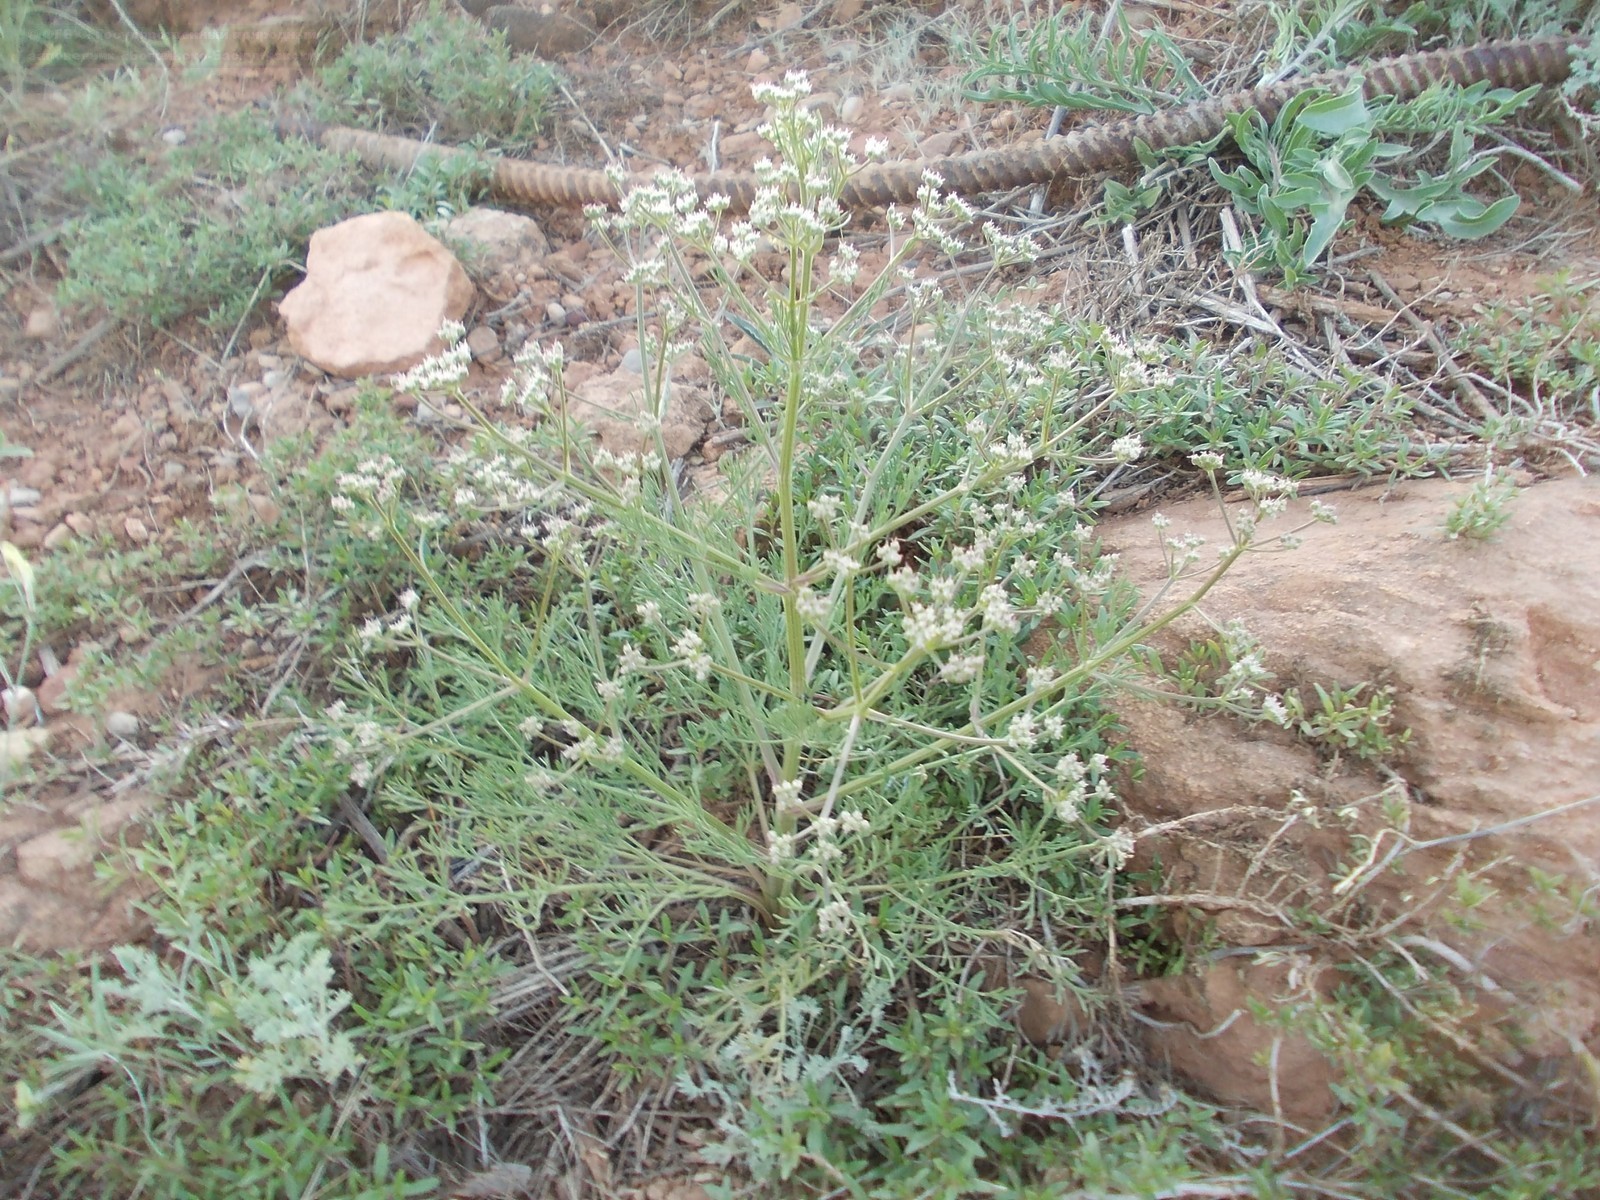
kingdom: Plantae
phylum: Tracheophyta
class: Magnoliopsida
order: Apiales
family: Apiaceae
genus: Trinia
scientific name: Trinia hispida
